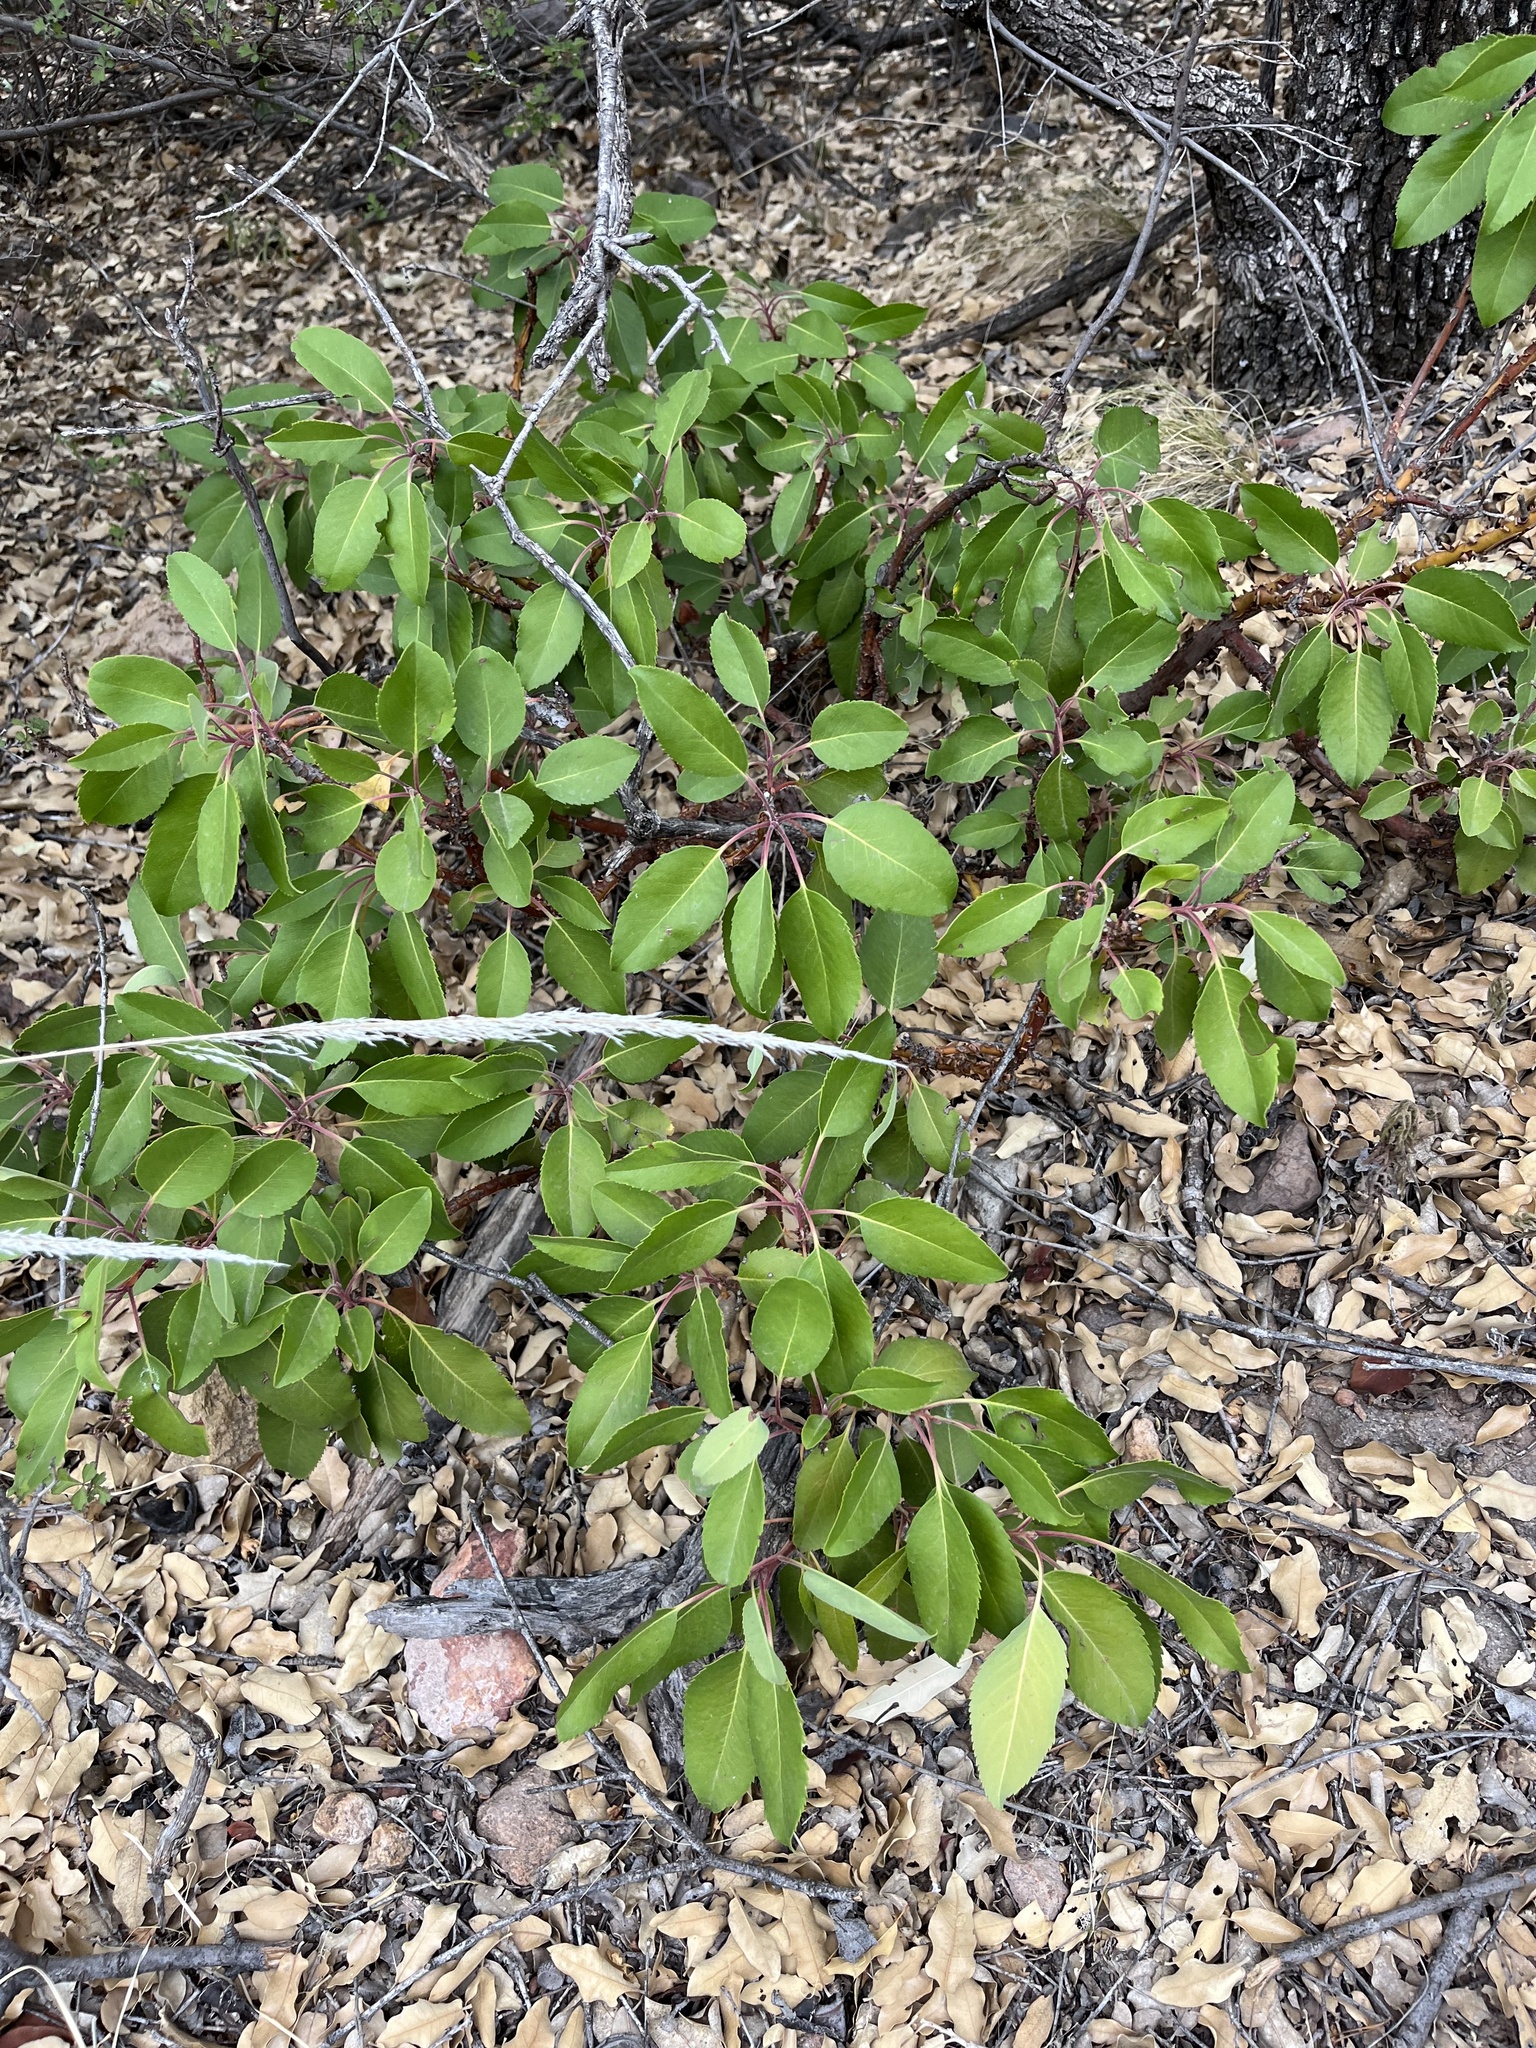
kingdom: Plantae
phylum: Tracheophyta
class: Magnoliopsida
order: Ericales
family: Ericaceae
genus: Arbutus
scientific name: Arbutus xalapensis
